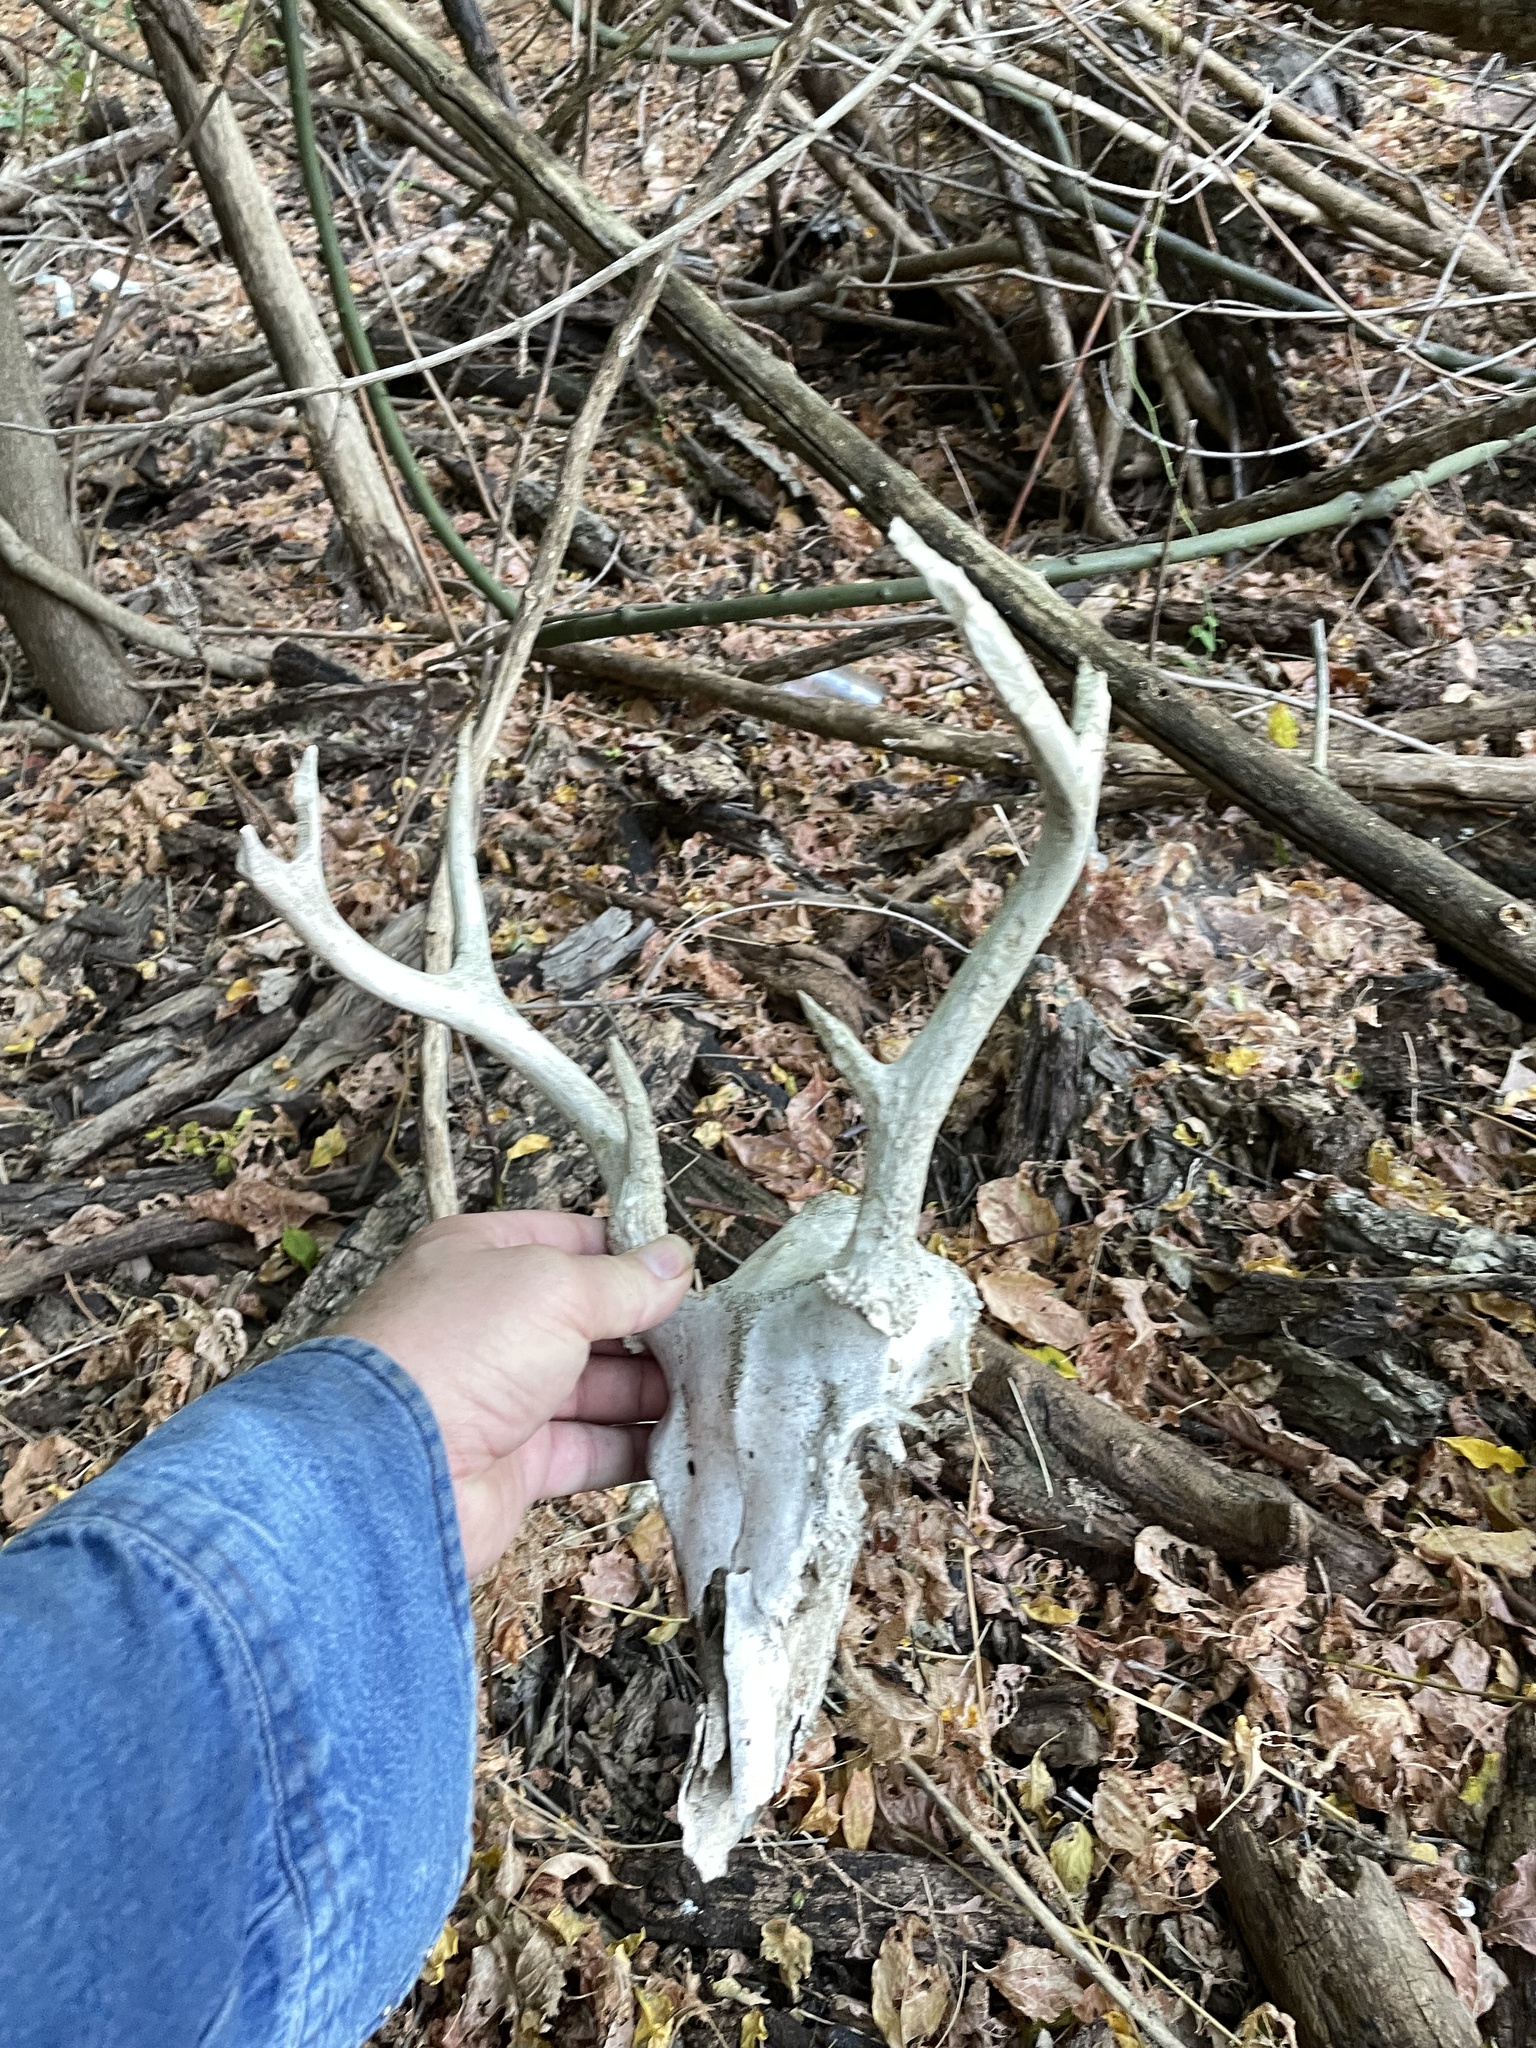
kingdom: Animalia
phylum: Chordata
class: Mammalia
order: Artiodactyla
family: Cervidae
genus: Odocoileus
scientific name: Odocoileus virginianus
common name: White-tailed deer
